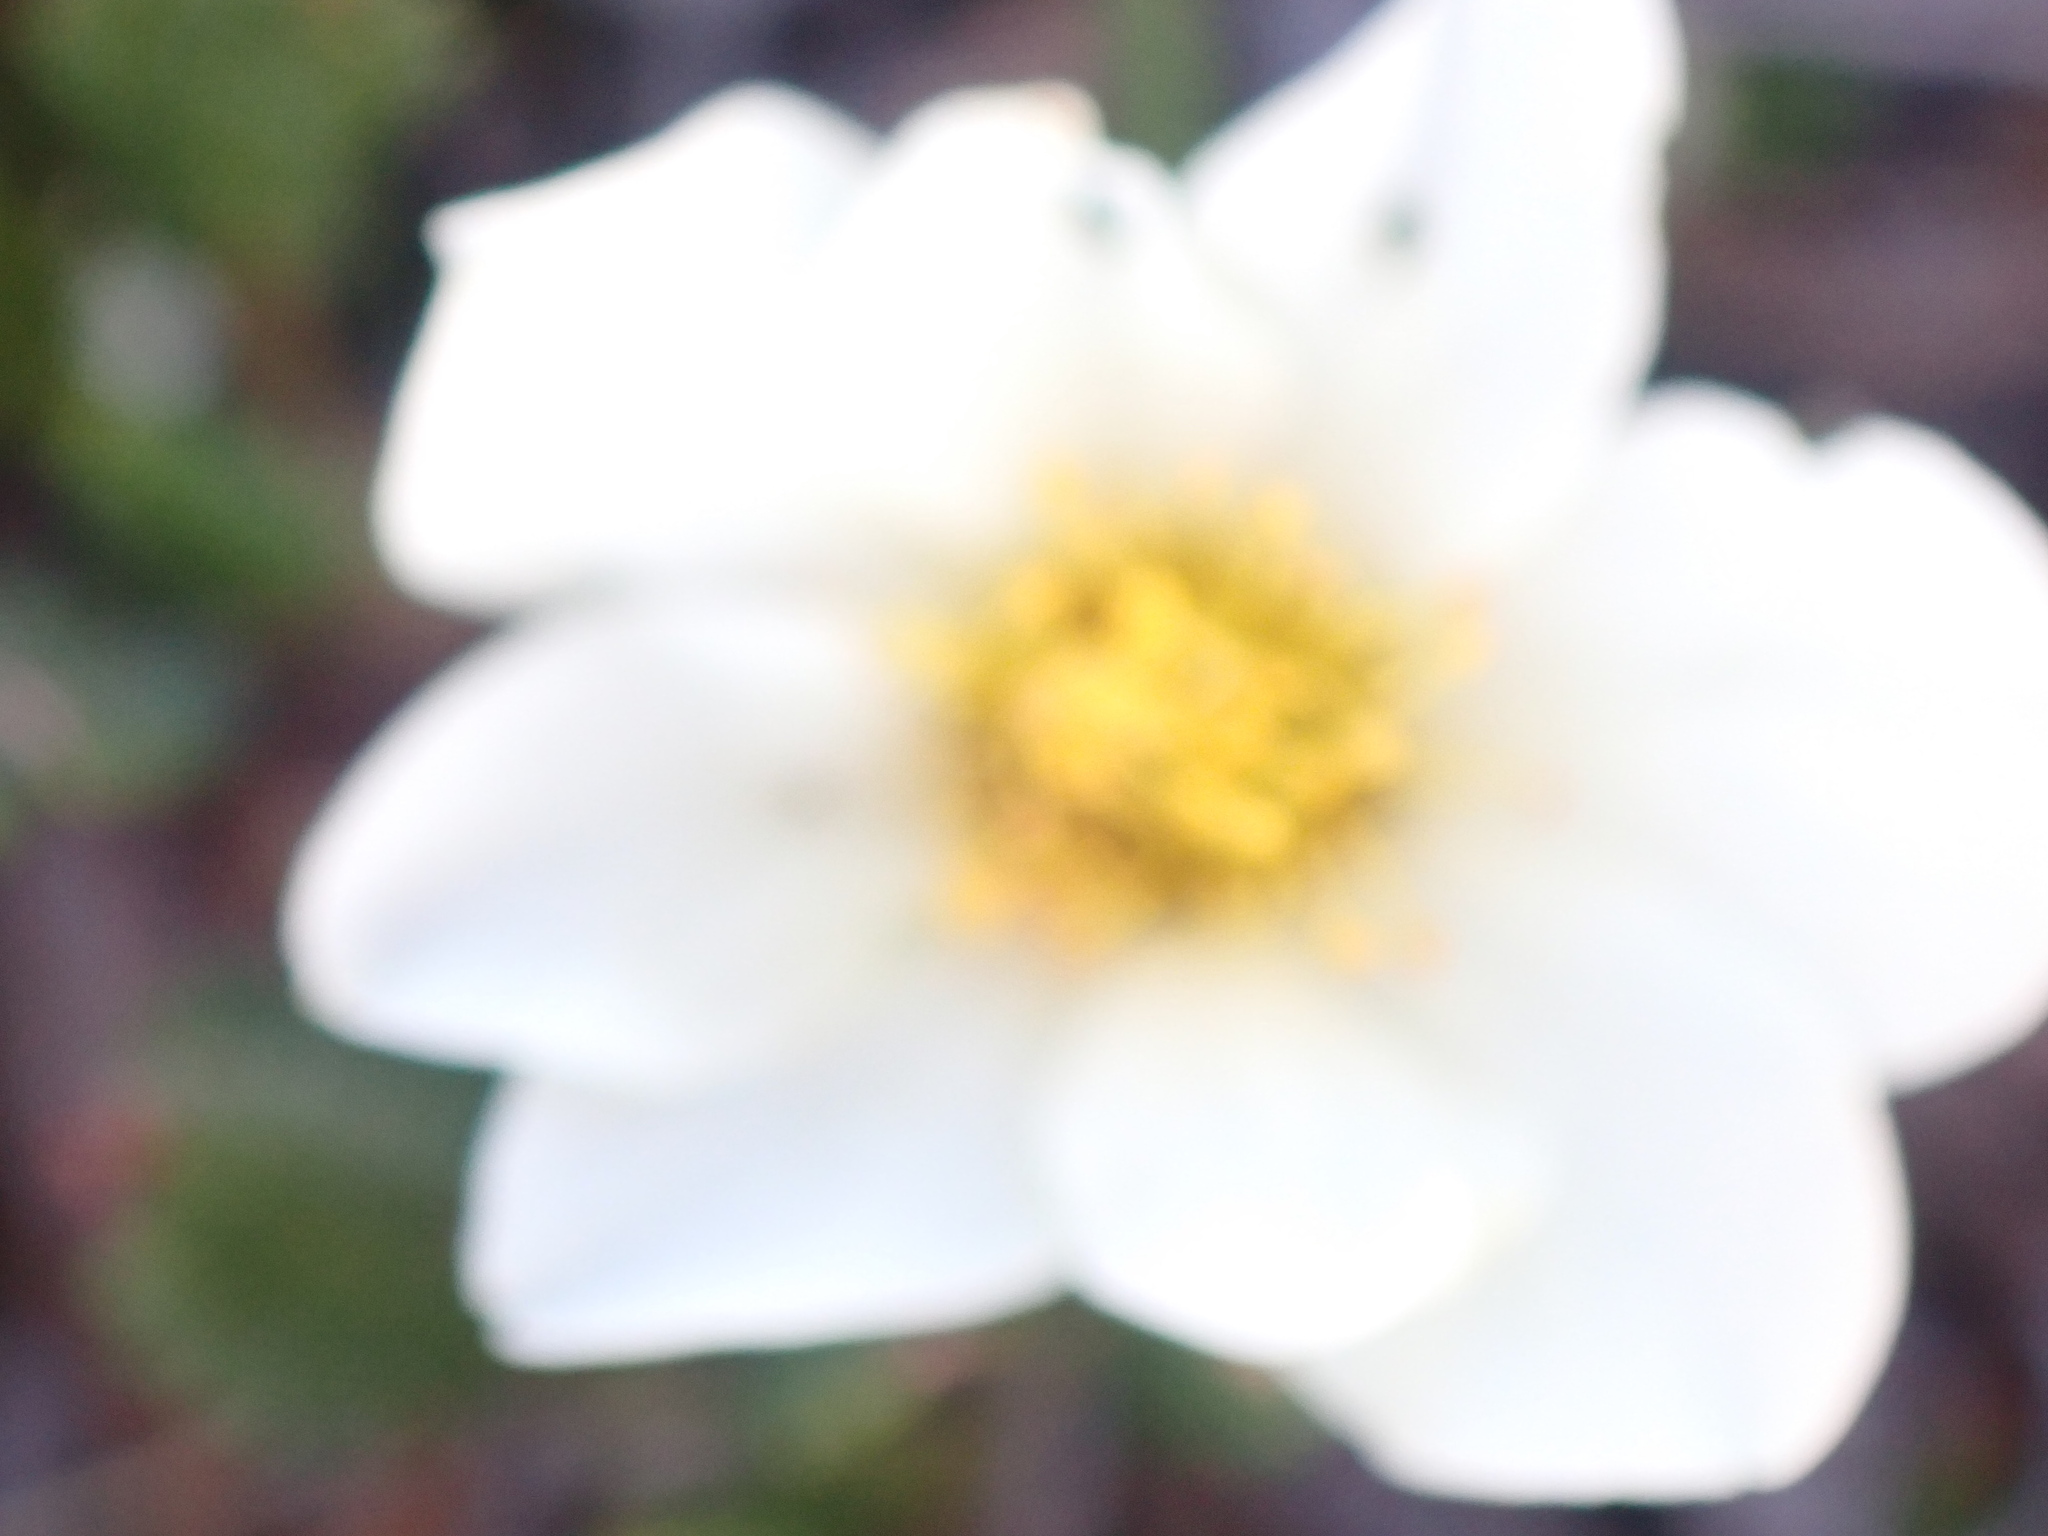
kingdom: Plantae
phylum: Tracheophyta
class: Magnoliopsida
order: Rosales
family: Rosaceae
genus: Dryas
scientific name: Dryas octopetala
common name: Eight-petal mountain-avens
